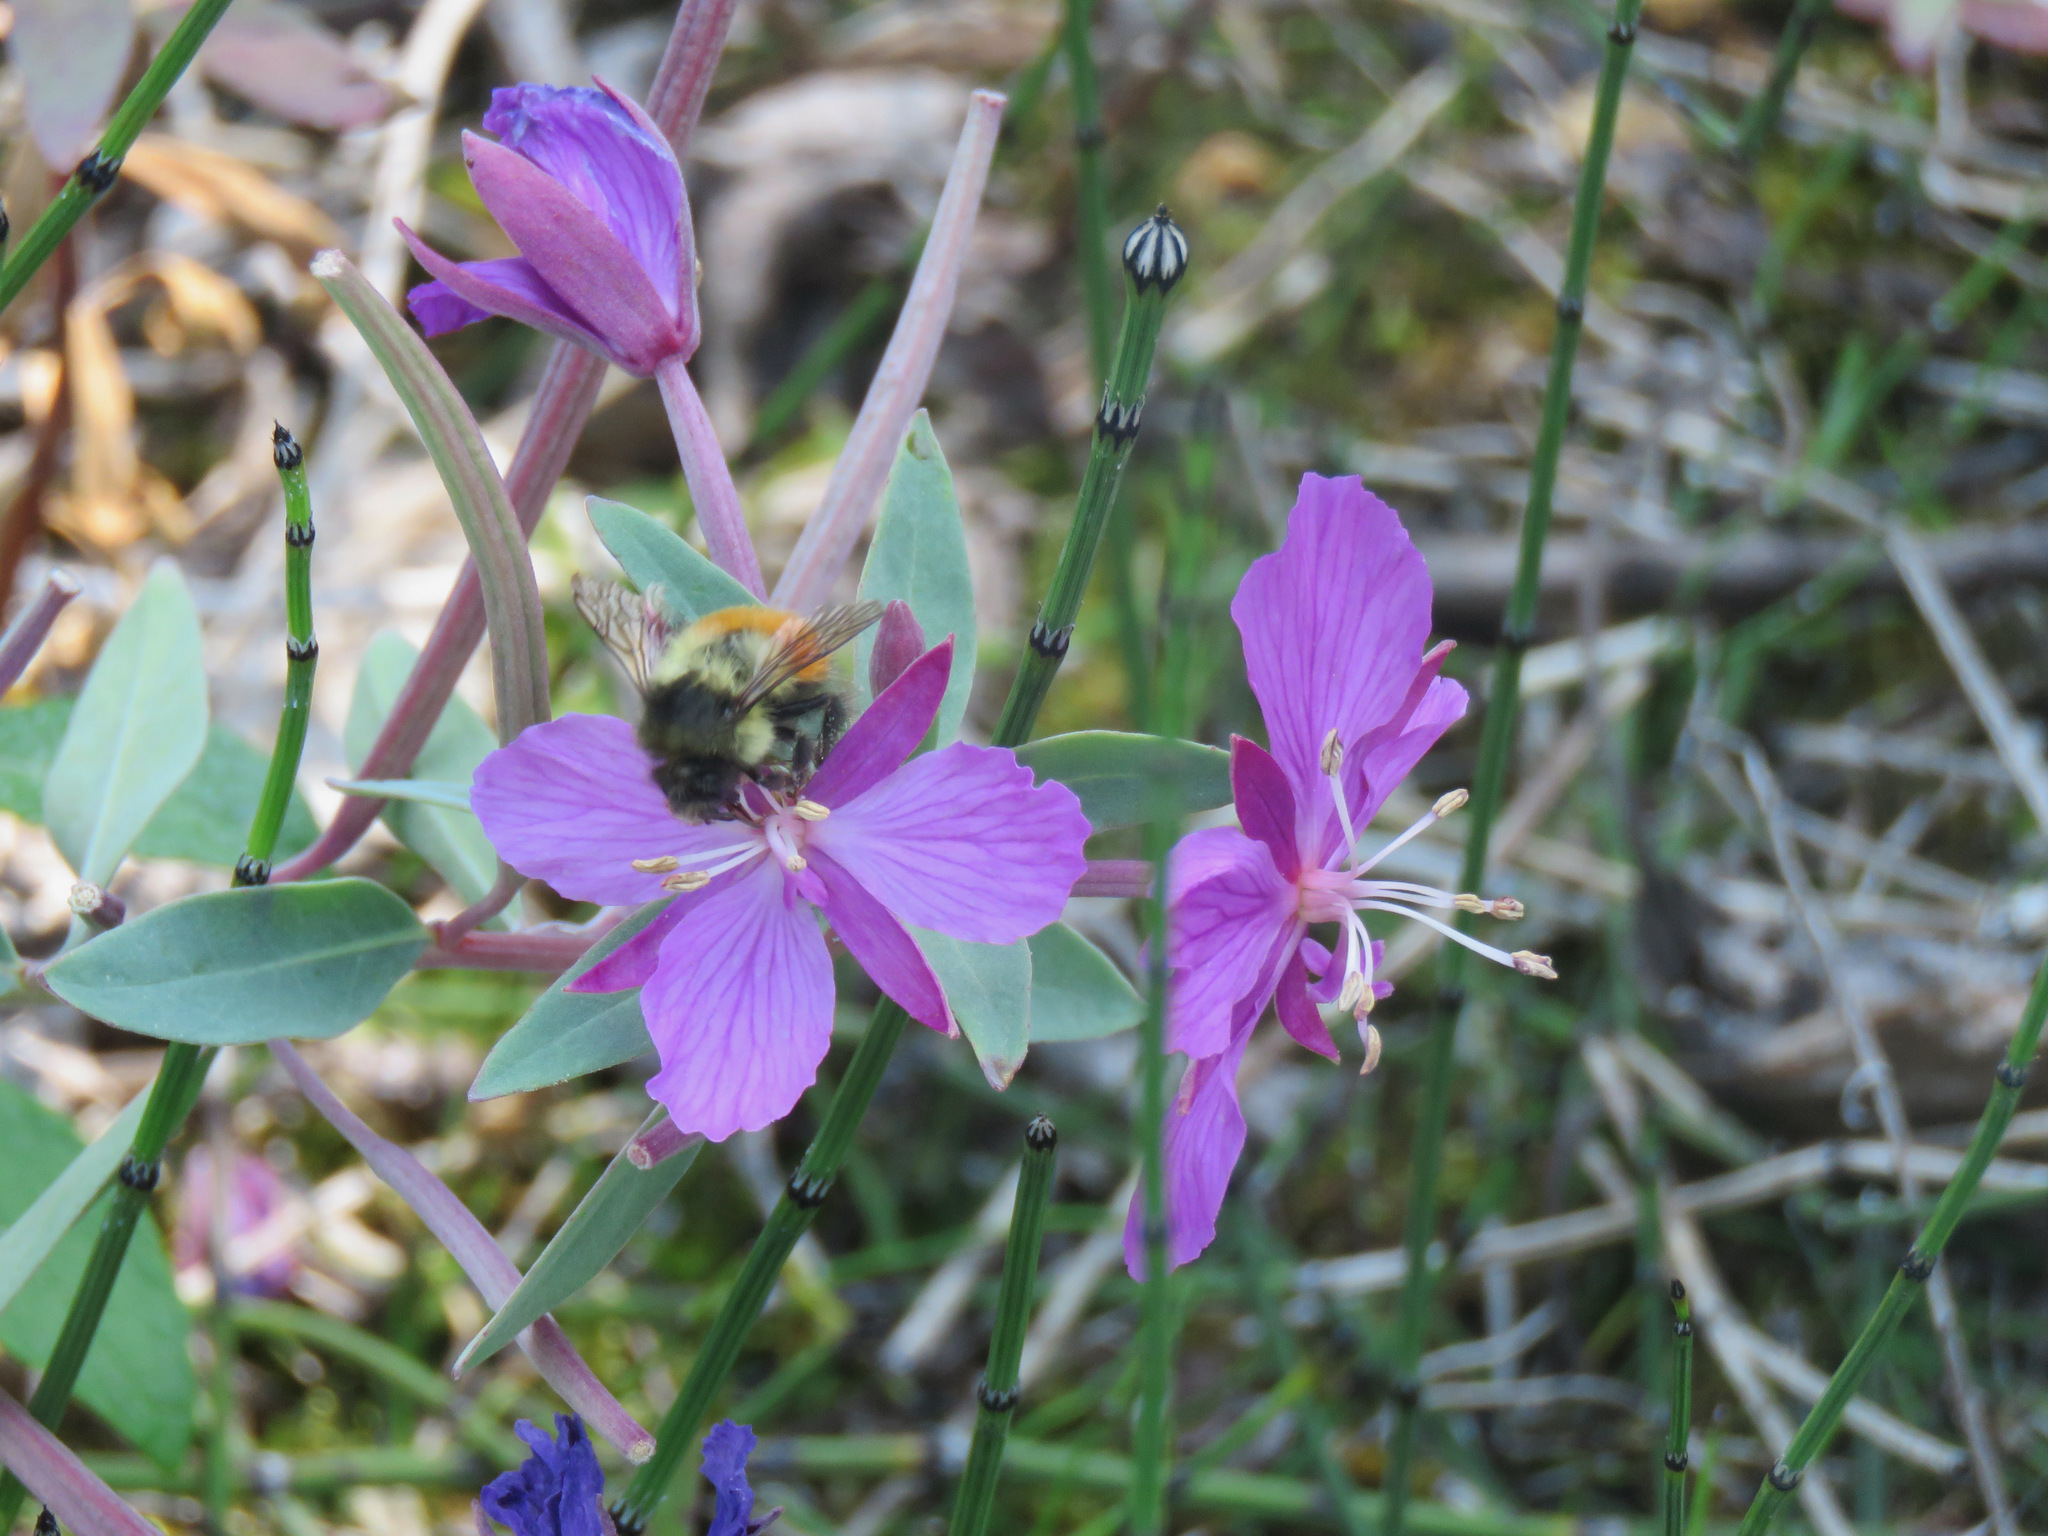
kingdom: Plantae
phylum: Tracheophyta
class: Magnoliopsida
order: Myrtales
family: Onagraceae
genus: Chamaenerion
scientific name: Chamaenerion latifolium
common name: Dwarf fireweed
